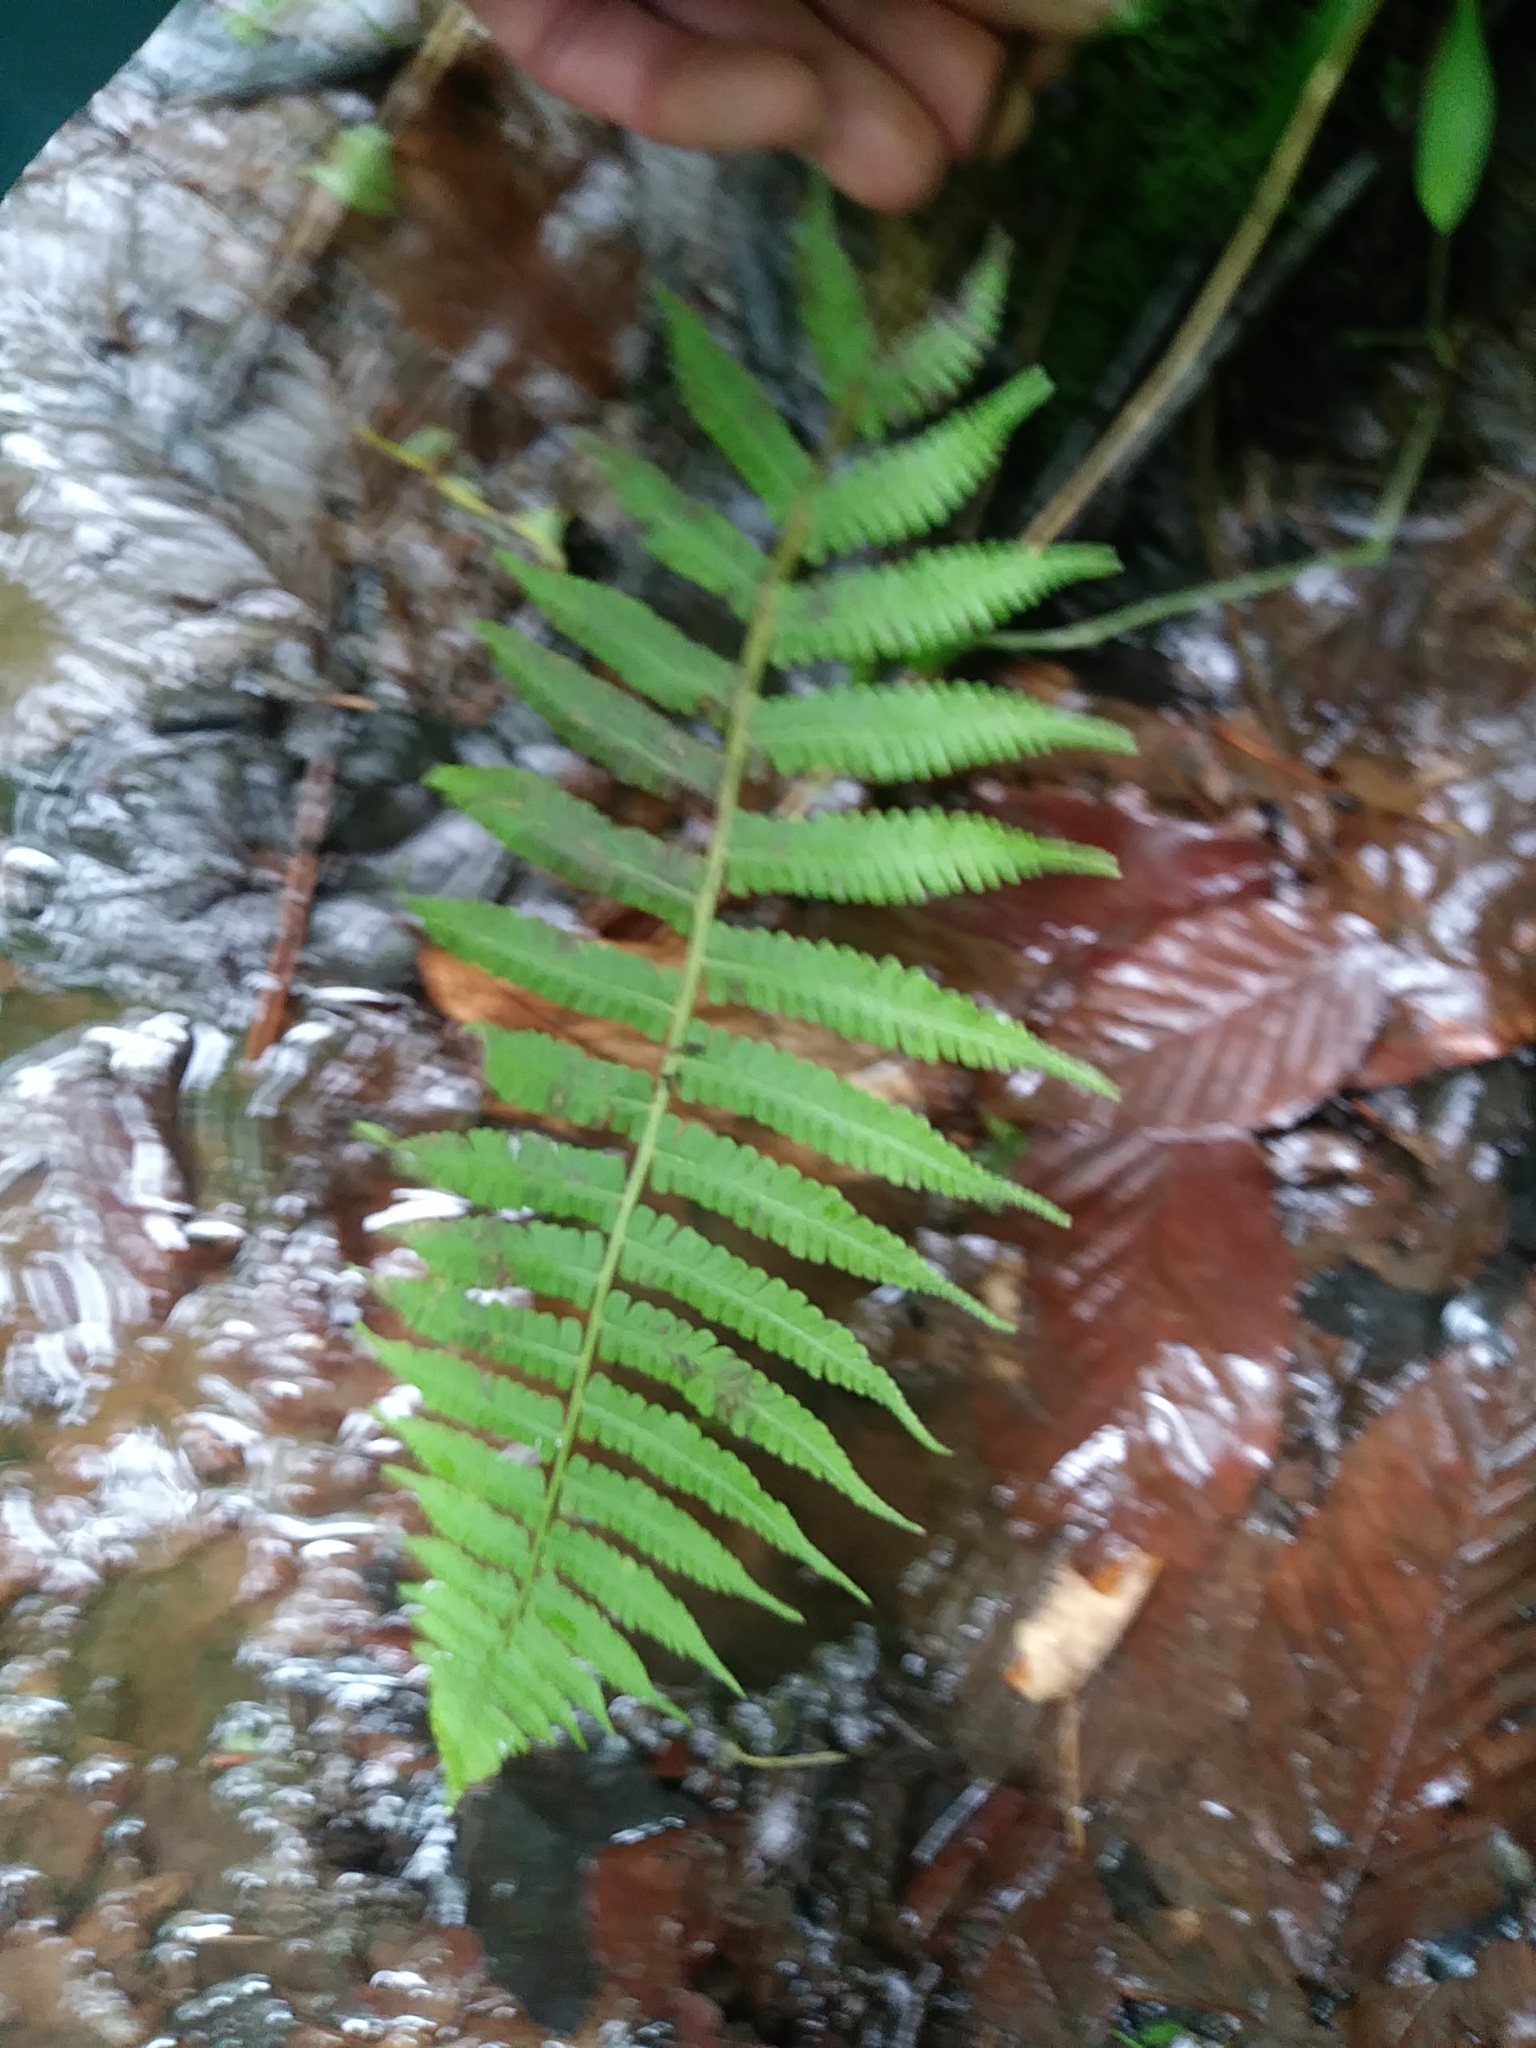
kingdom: Plantae
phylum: Tracheophyta
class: Polypodiopsida
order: Polypodiales
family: Athyriaceae
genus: Deparia
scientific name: Deparia acrostichoides
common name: Silver false spleenwort
